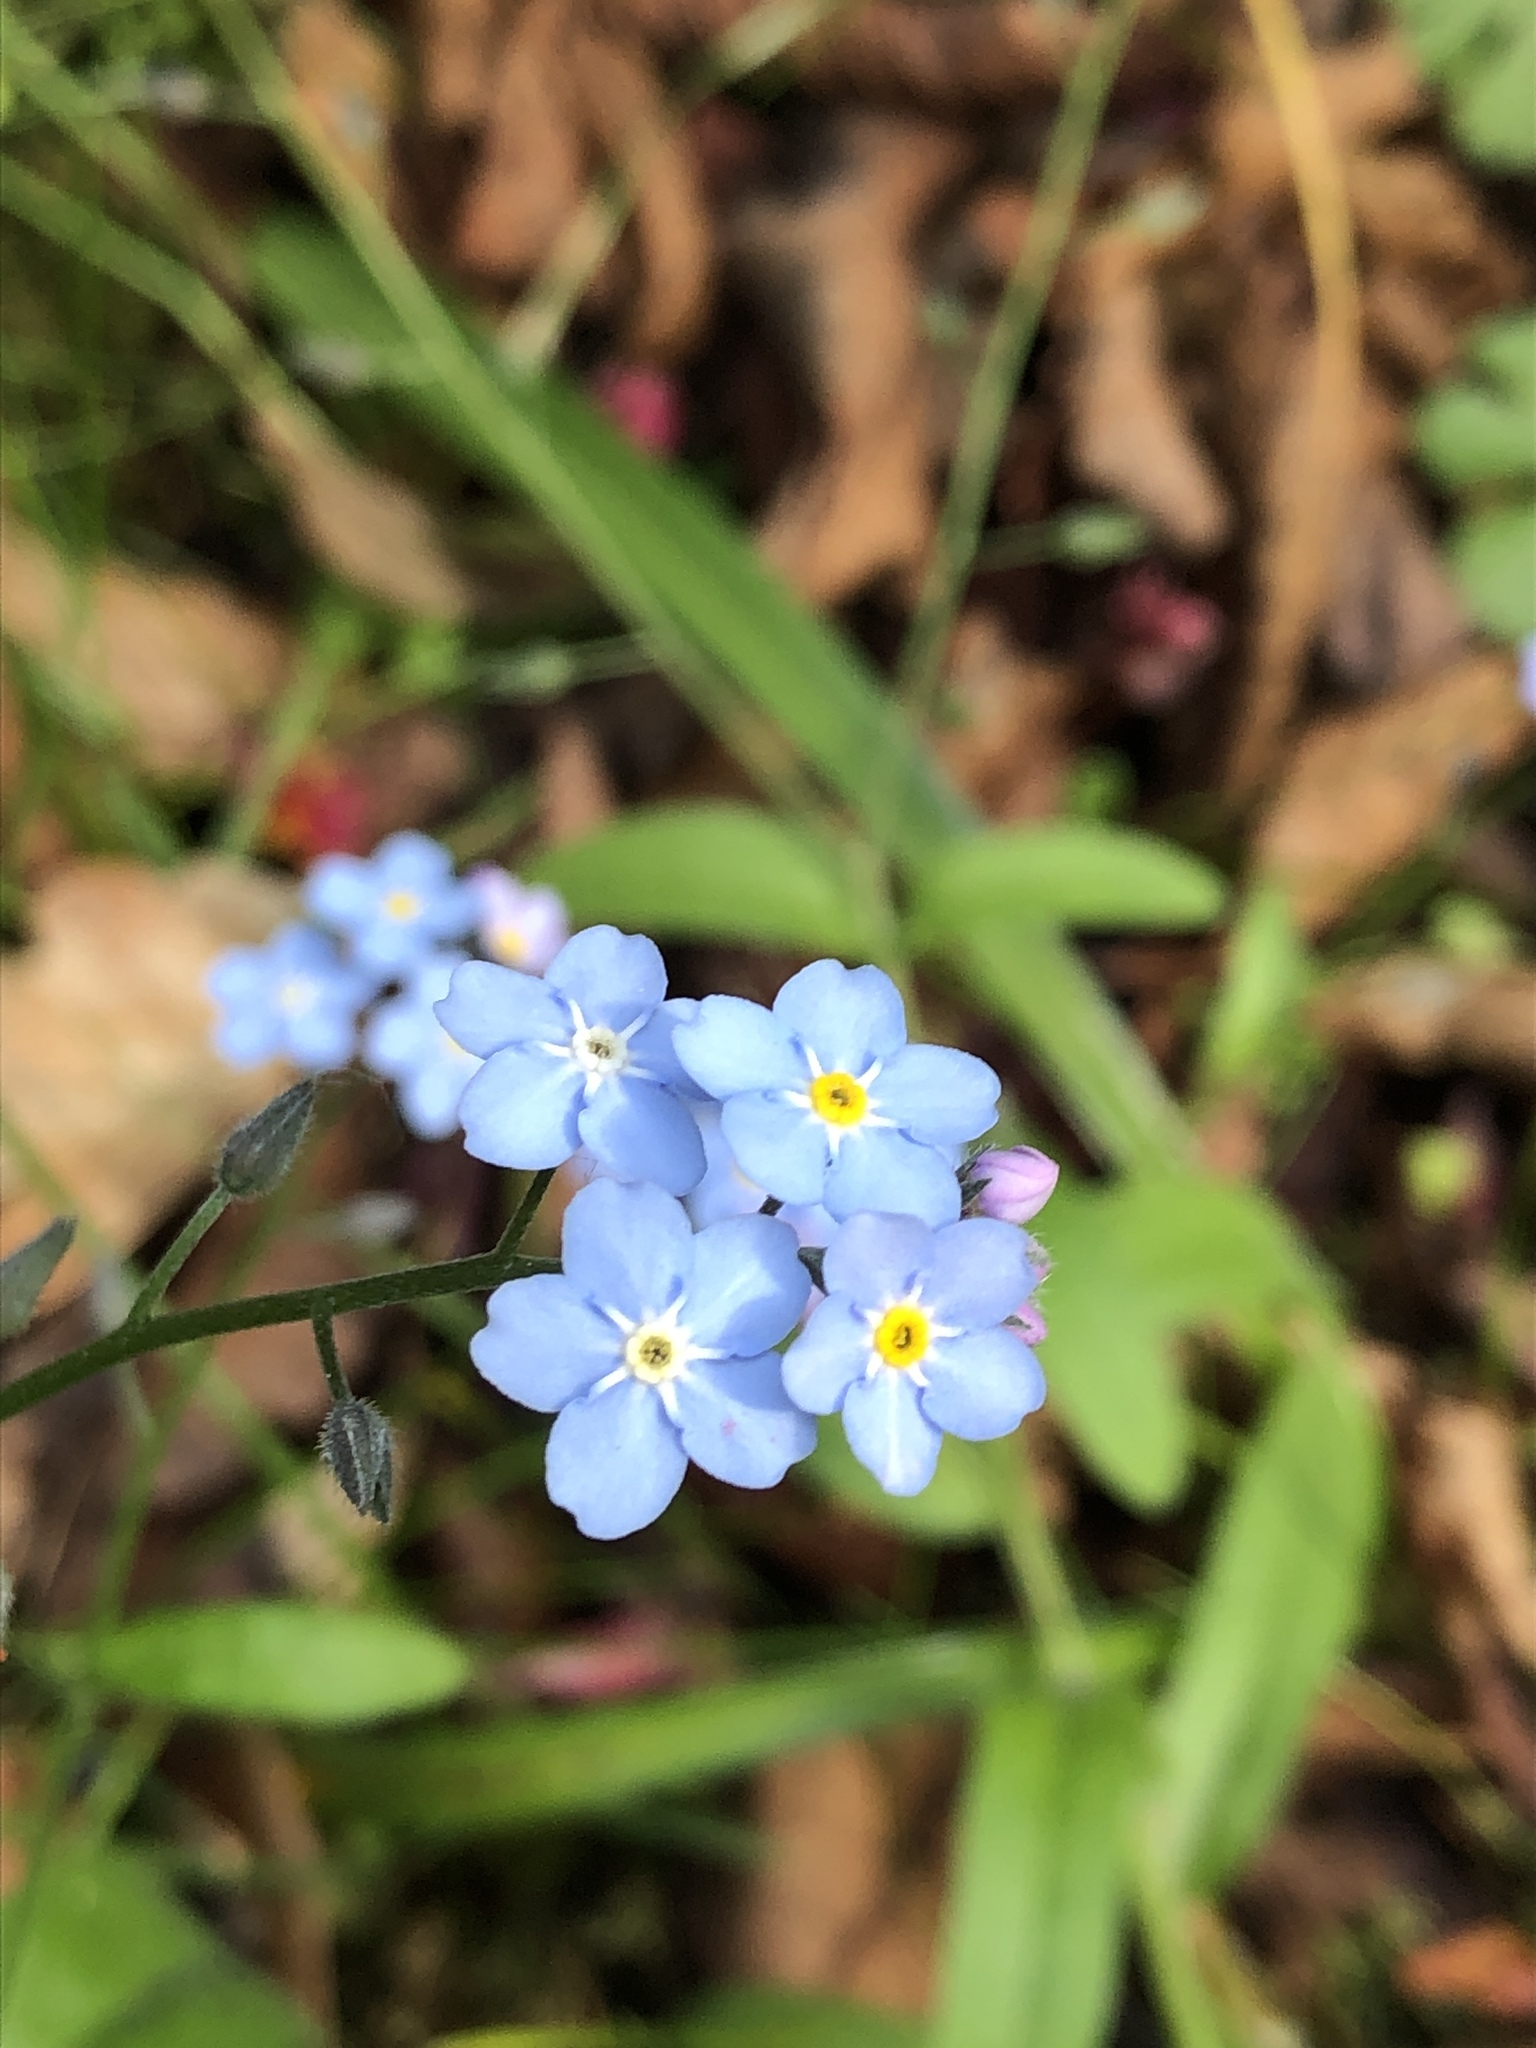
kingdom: Plantae
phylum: Tracheophyta
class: Magnoliopsida
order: Boraginales
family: Boraginaceae
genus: Myosotis
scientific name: Myosotis sylvatica
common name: Wood forget-me-not
